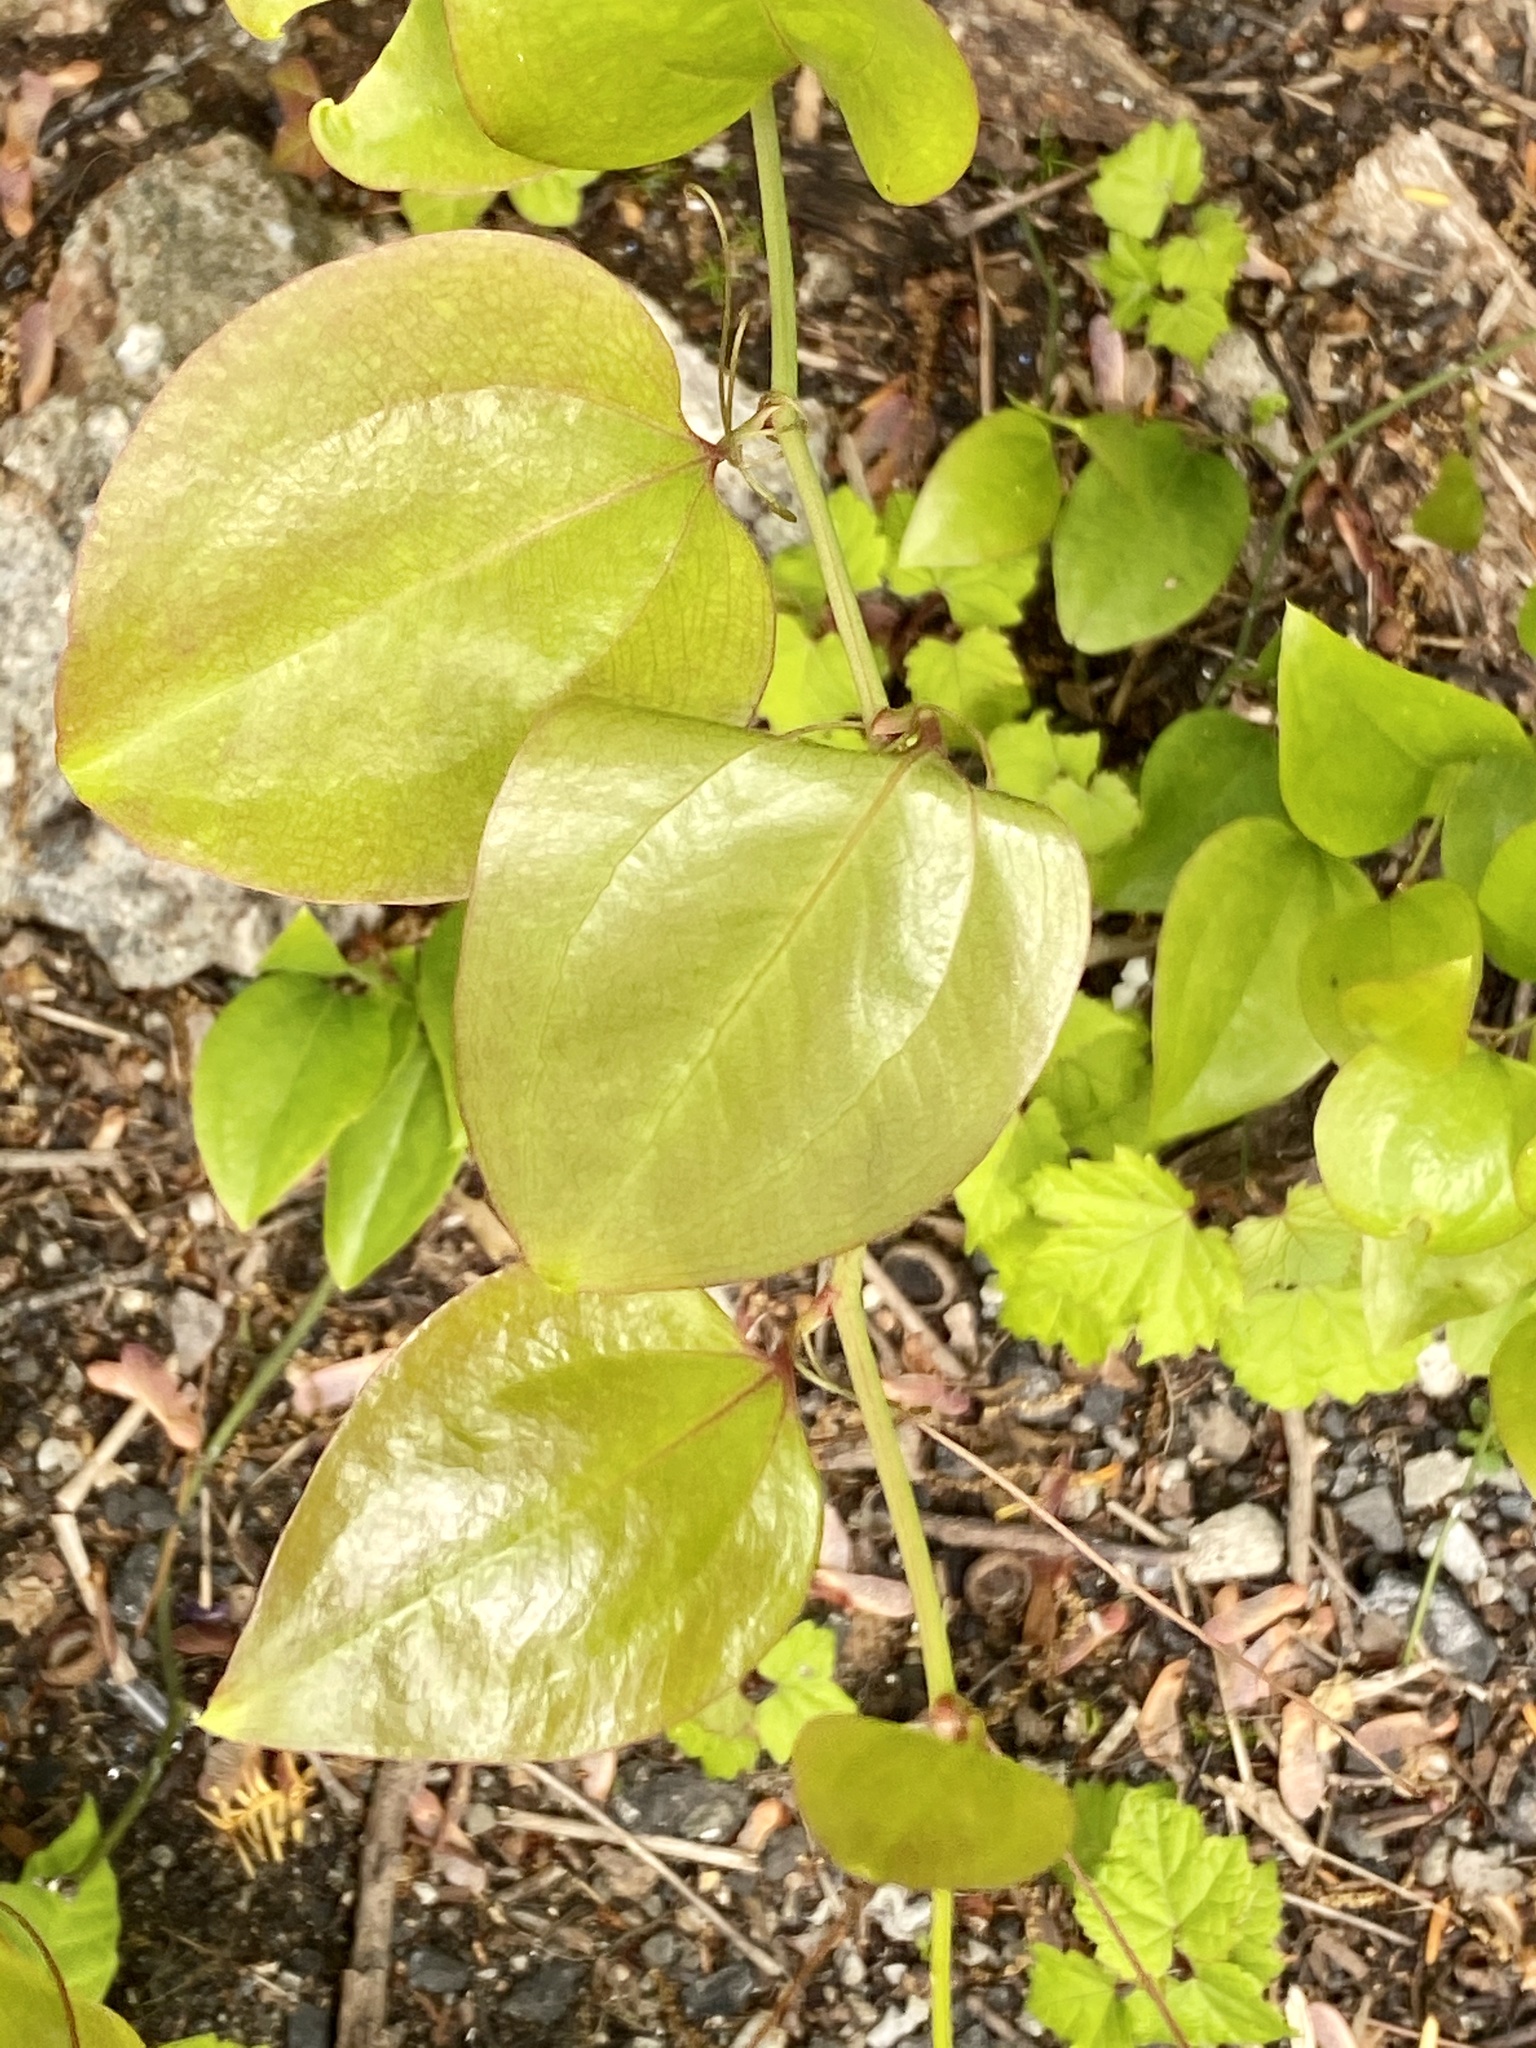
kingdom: Plantae
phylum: Tracheophyta
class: Liliopsida
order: Liliales
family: Smilacaceae
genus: Smilax
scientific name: Smilax rotundifolia
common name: Bullbriar
